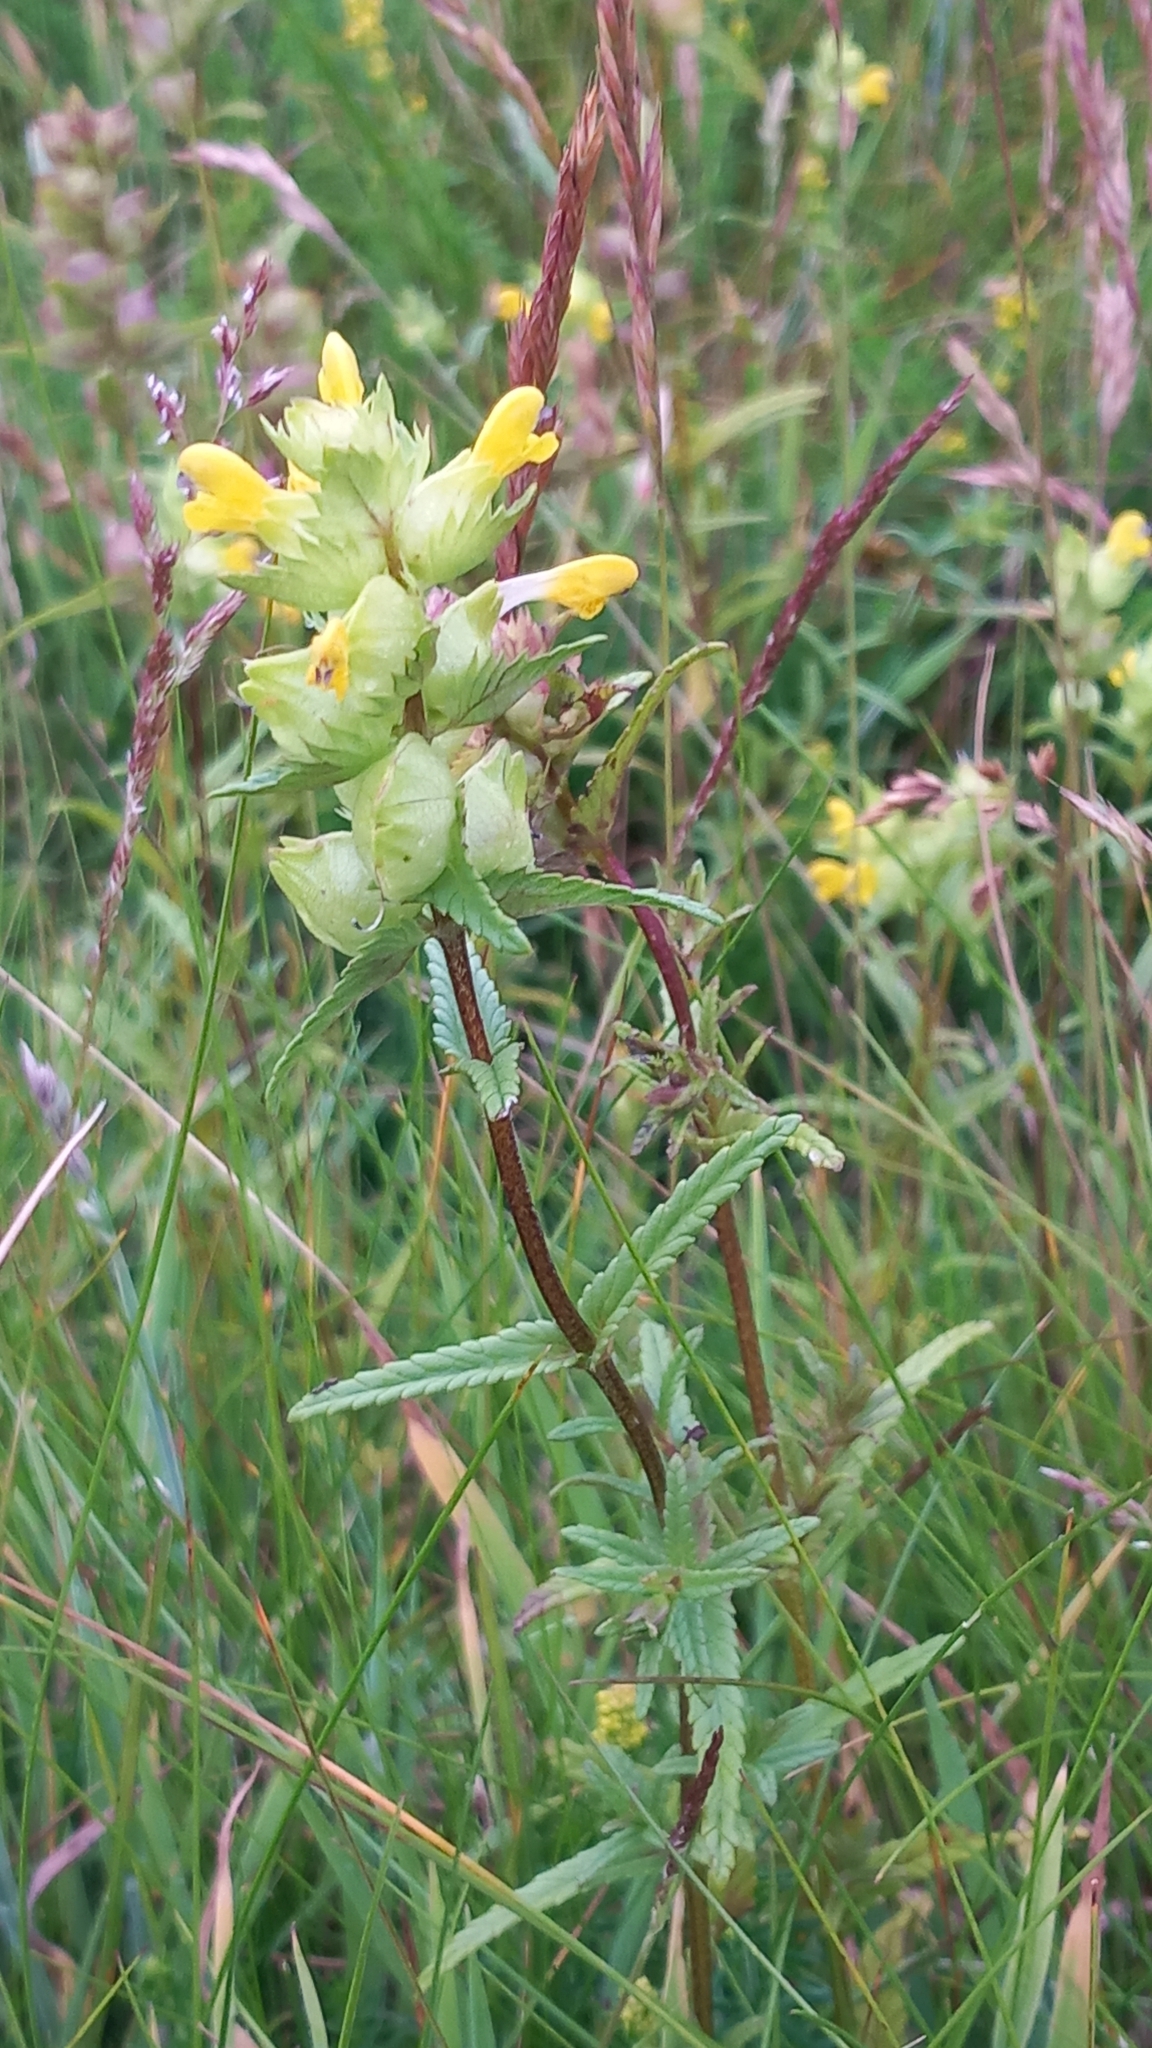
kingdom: Plantae
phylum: Tracheophyta
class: Magnoliopsida
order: Lamiales
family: Orobanchaceae
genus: Rhinanthus
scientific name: Rhinanthus minor
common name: Yellow-rattle
